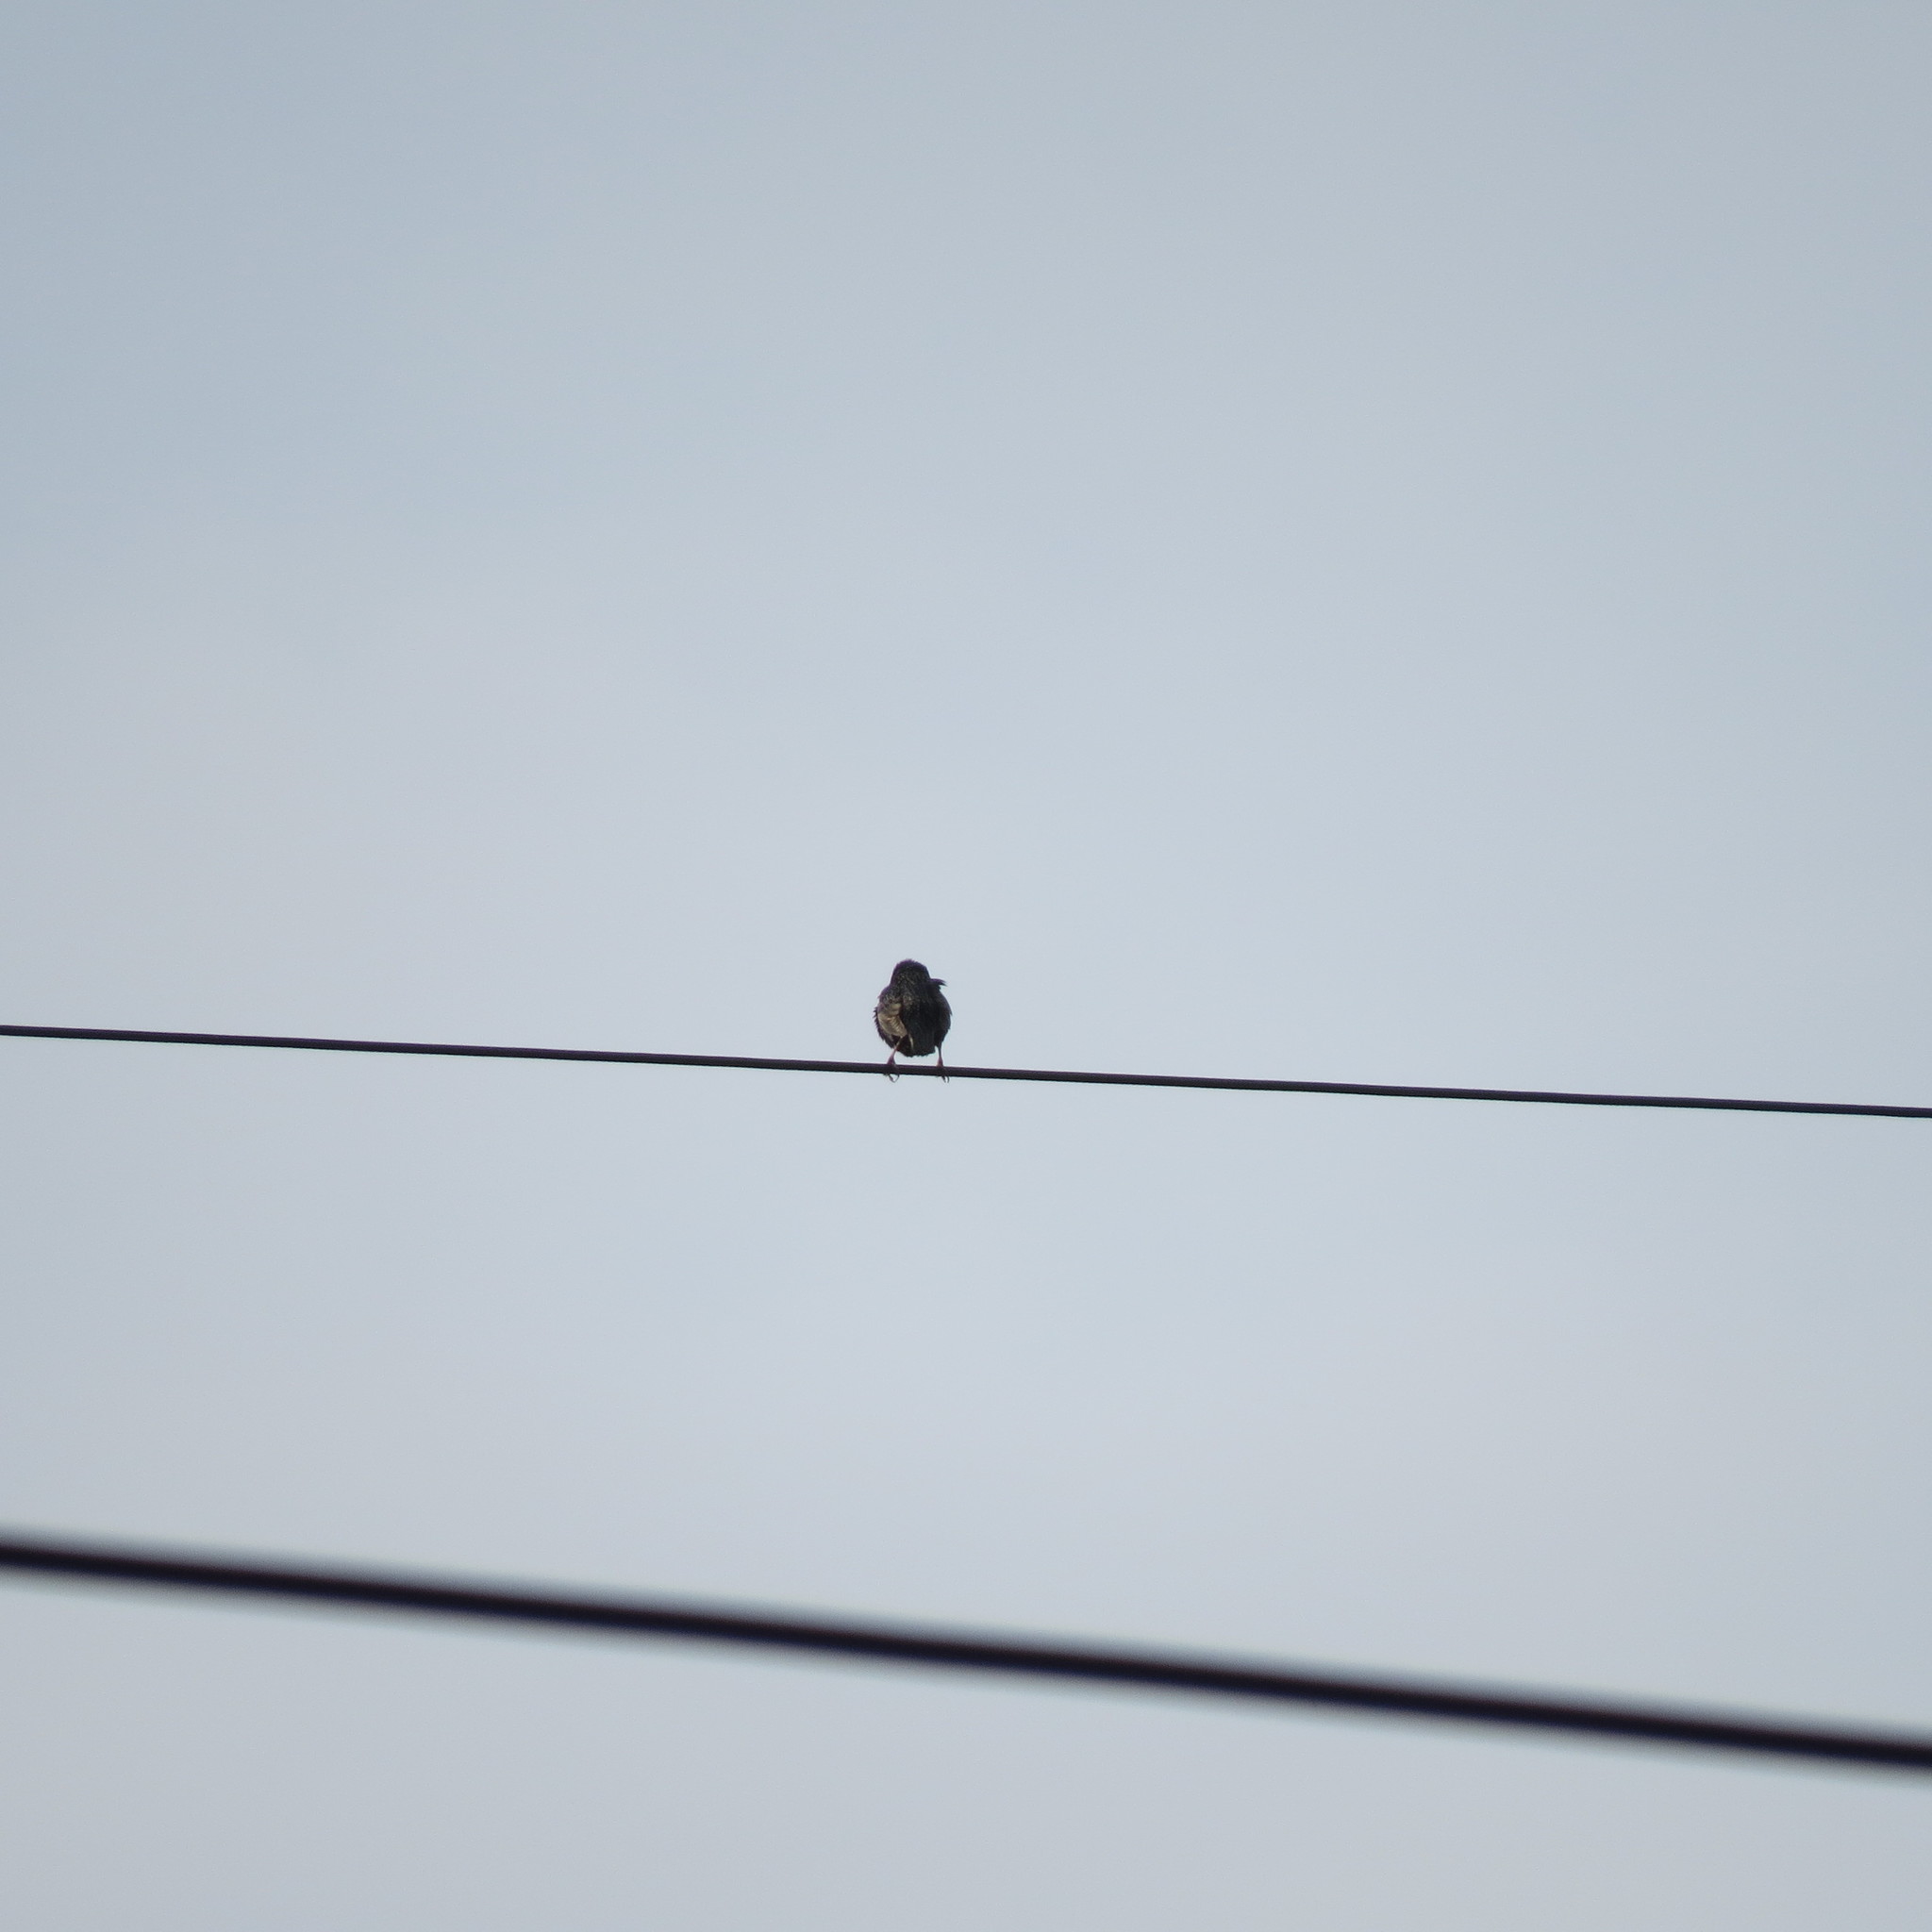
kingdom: Animalia
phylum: Chordata
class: Aves
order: Passeriformes
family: Sturnidae
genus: Sturnus
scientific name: Sturnus vulgaris
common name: Common starling
